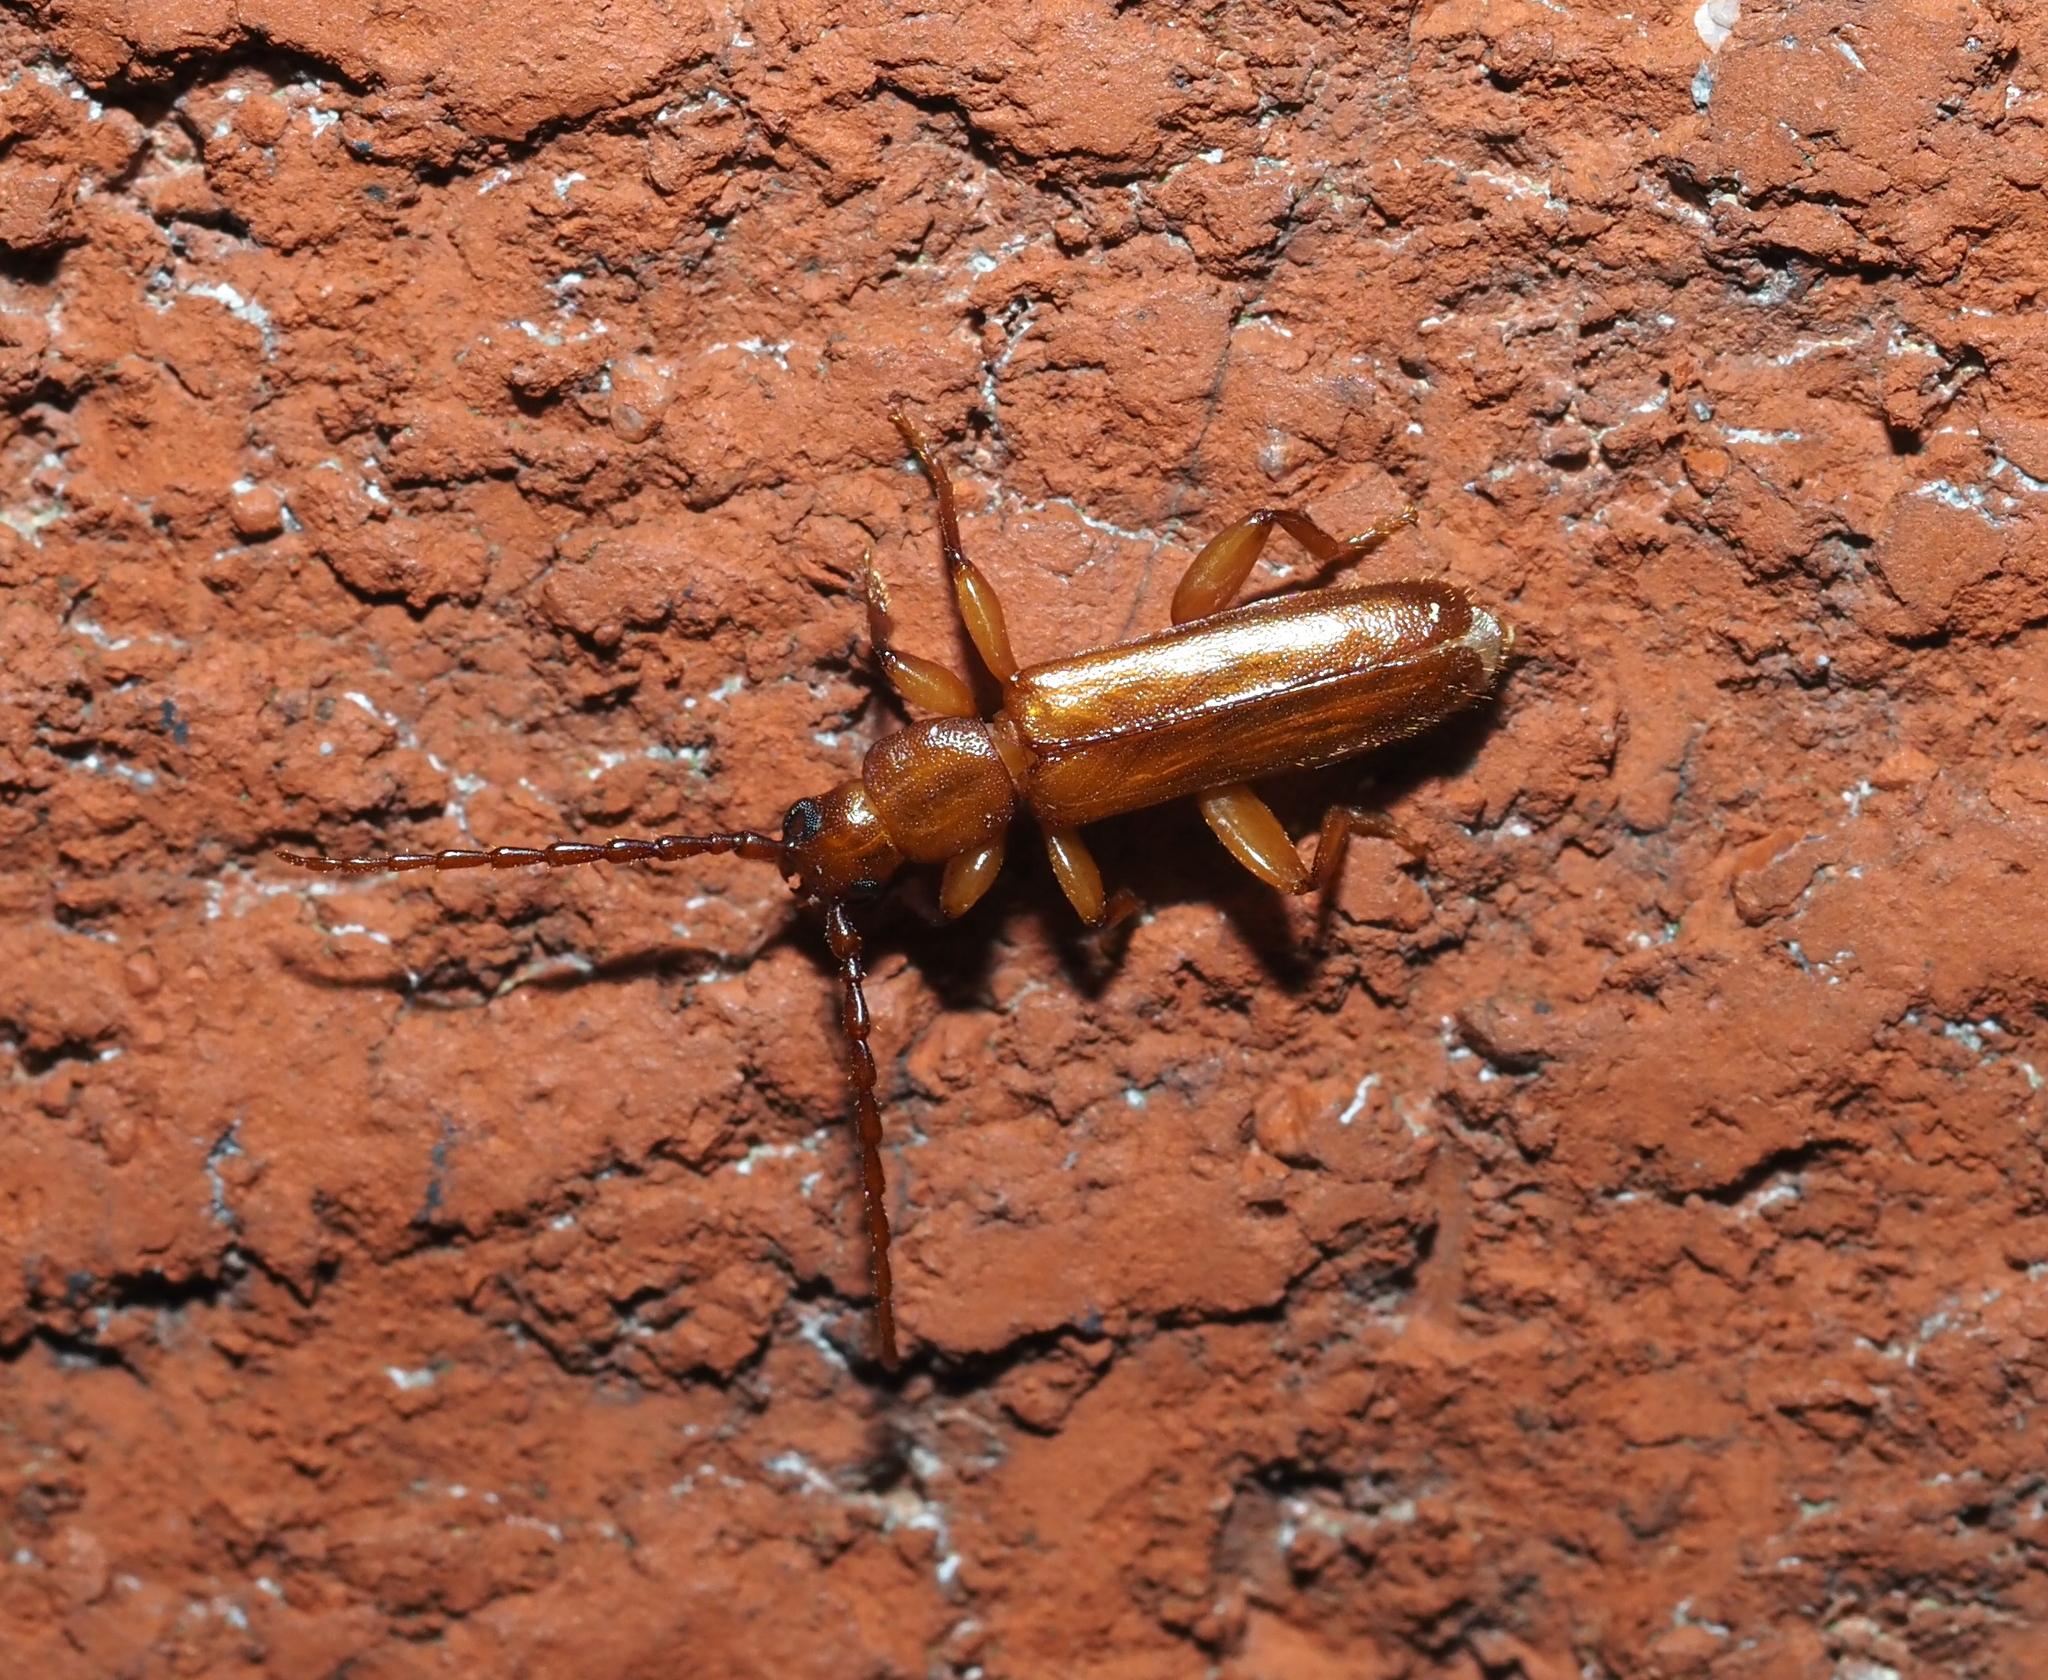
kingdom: Animalia
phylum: Arthropoda
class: Insecta
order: Coleoptera
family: Cerambycidae
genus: Smodicum
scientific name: Smodicum cucujiforme
